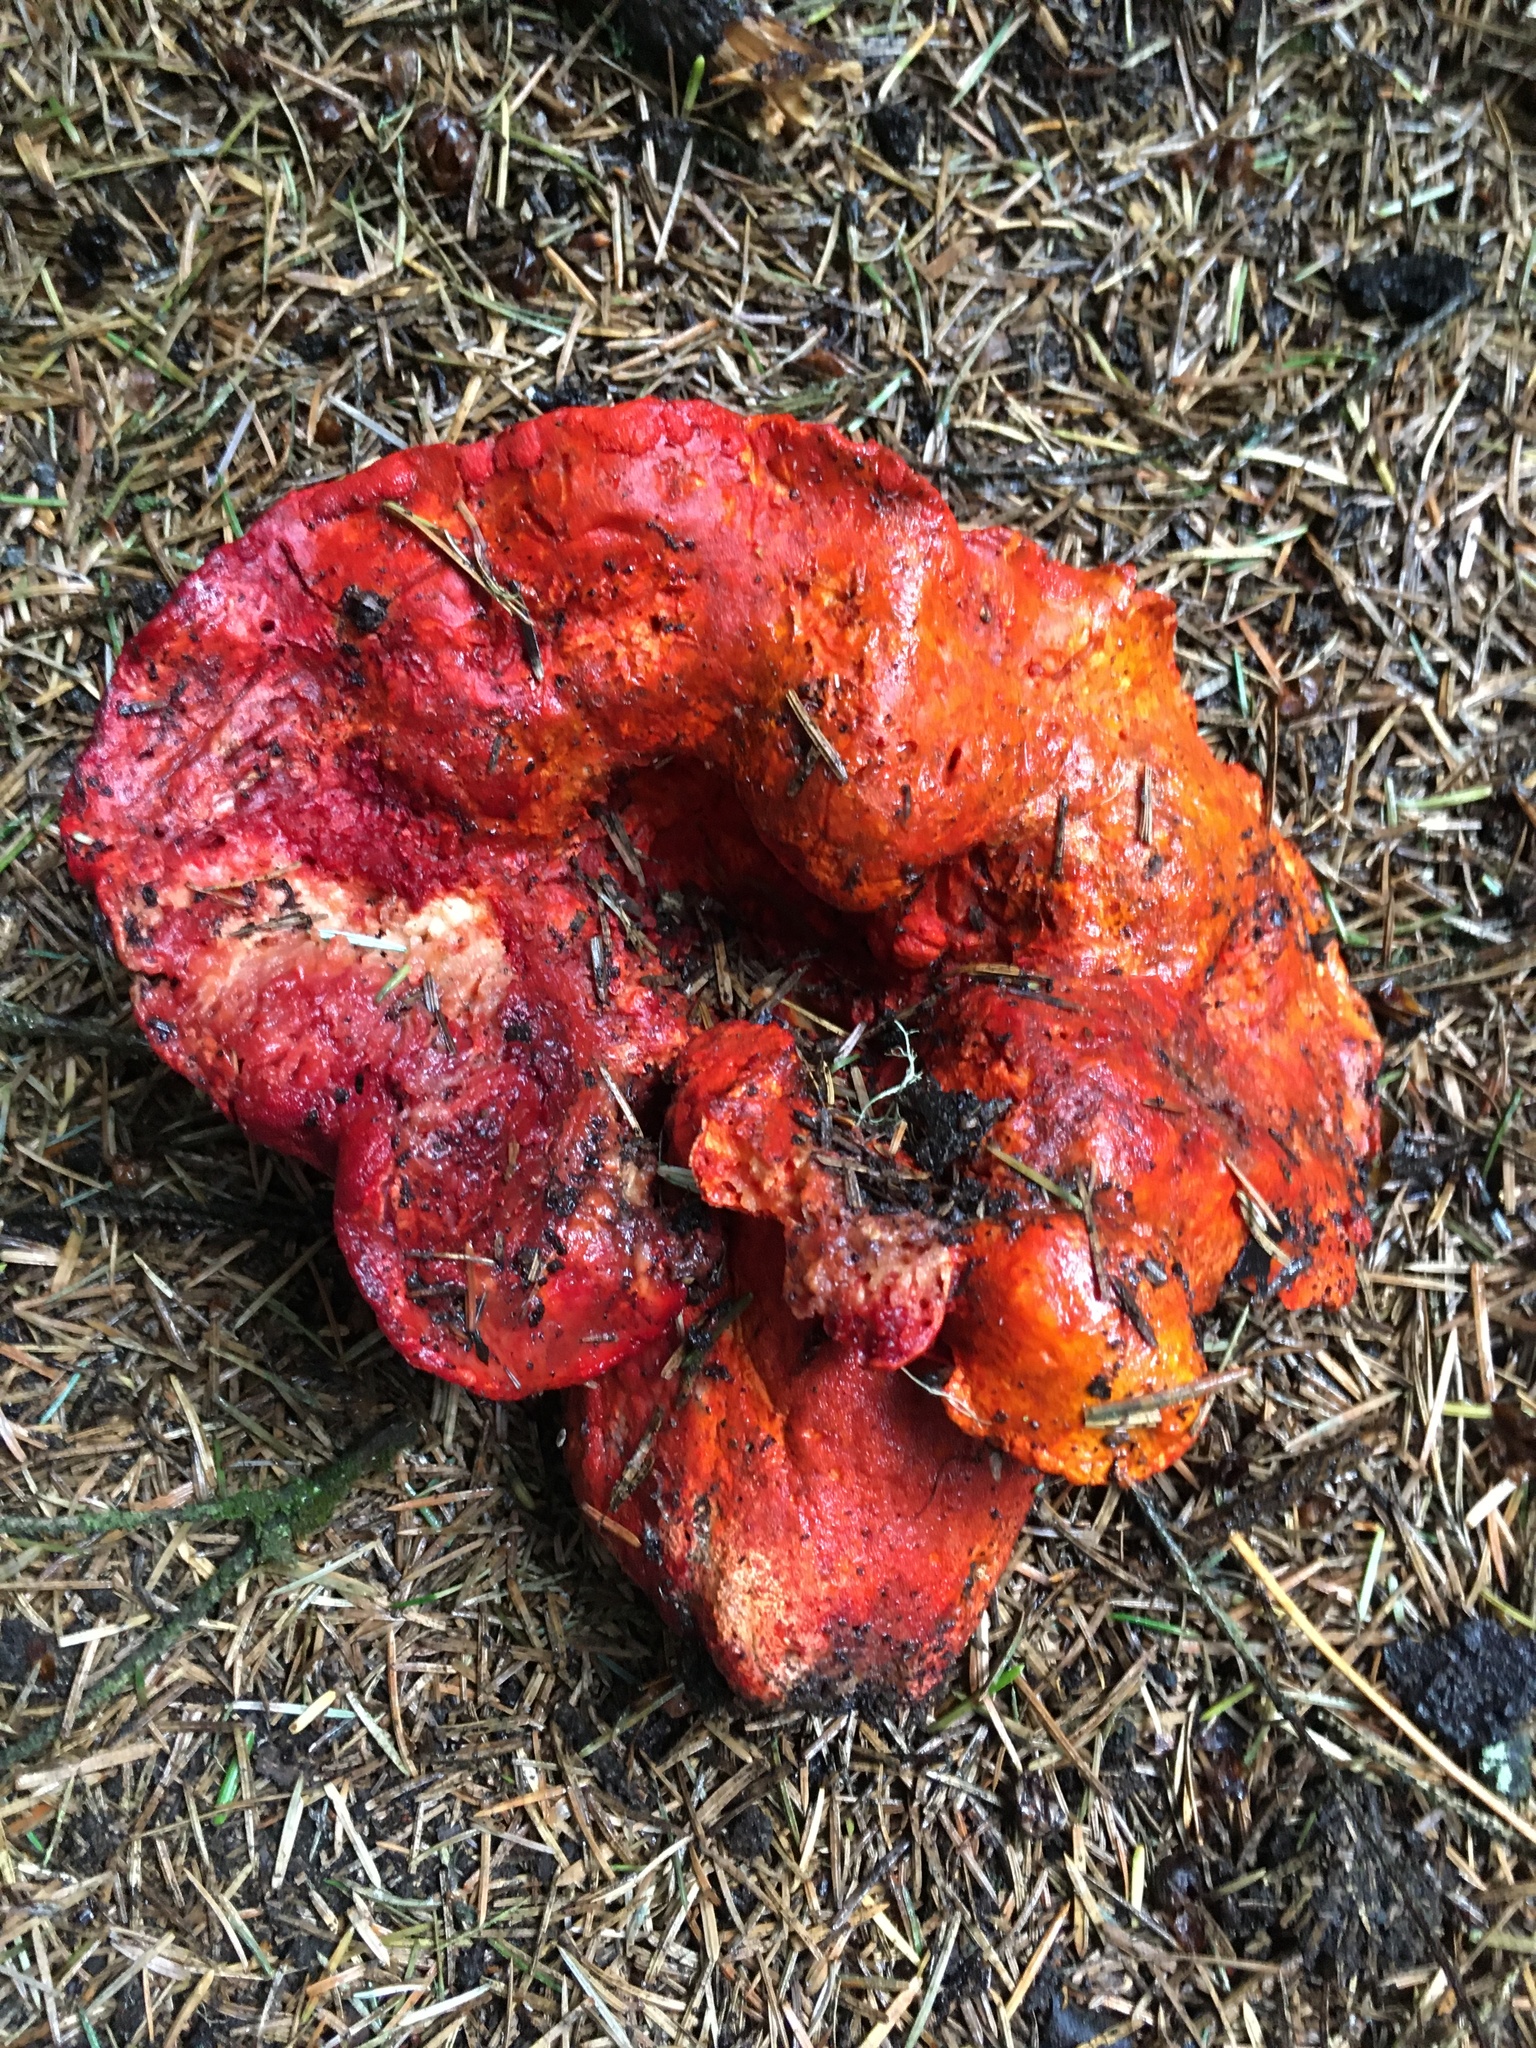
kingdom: Fungi
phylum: Ascomycota
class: Sordariomycetes
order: Hypocreales
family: Hypocreaceae
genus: Hypomyces
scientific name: Hypomyces lactifluorum
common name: Lobster mushroom
